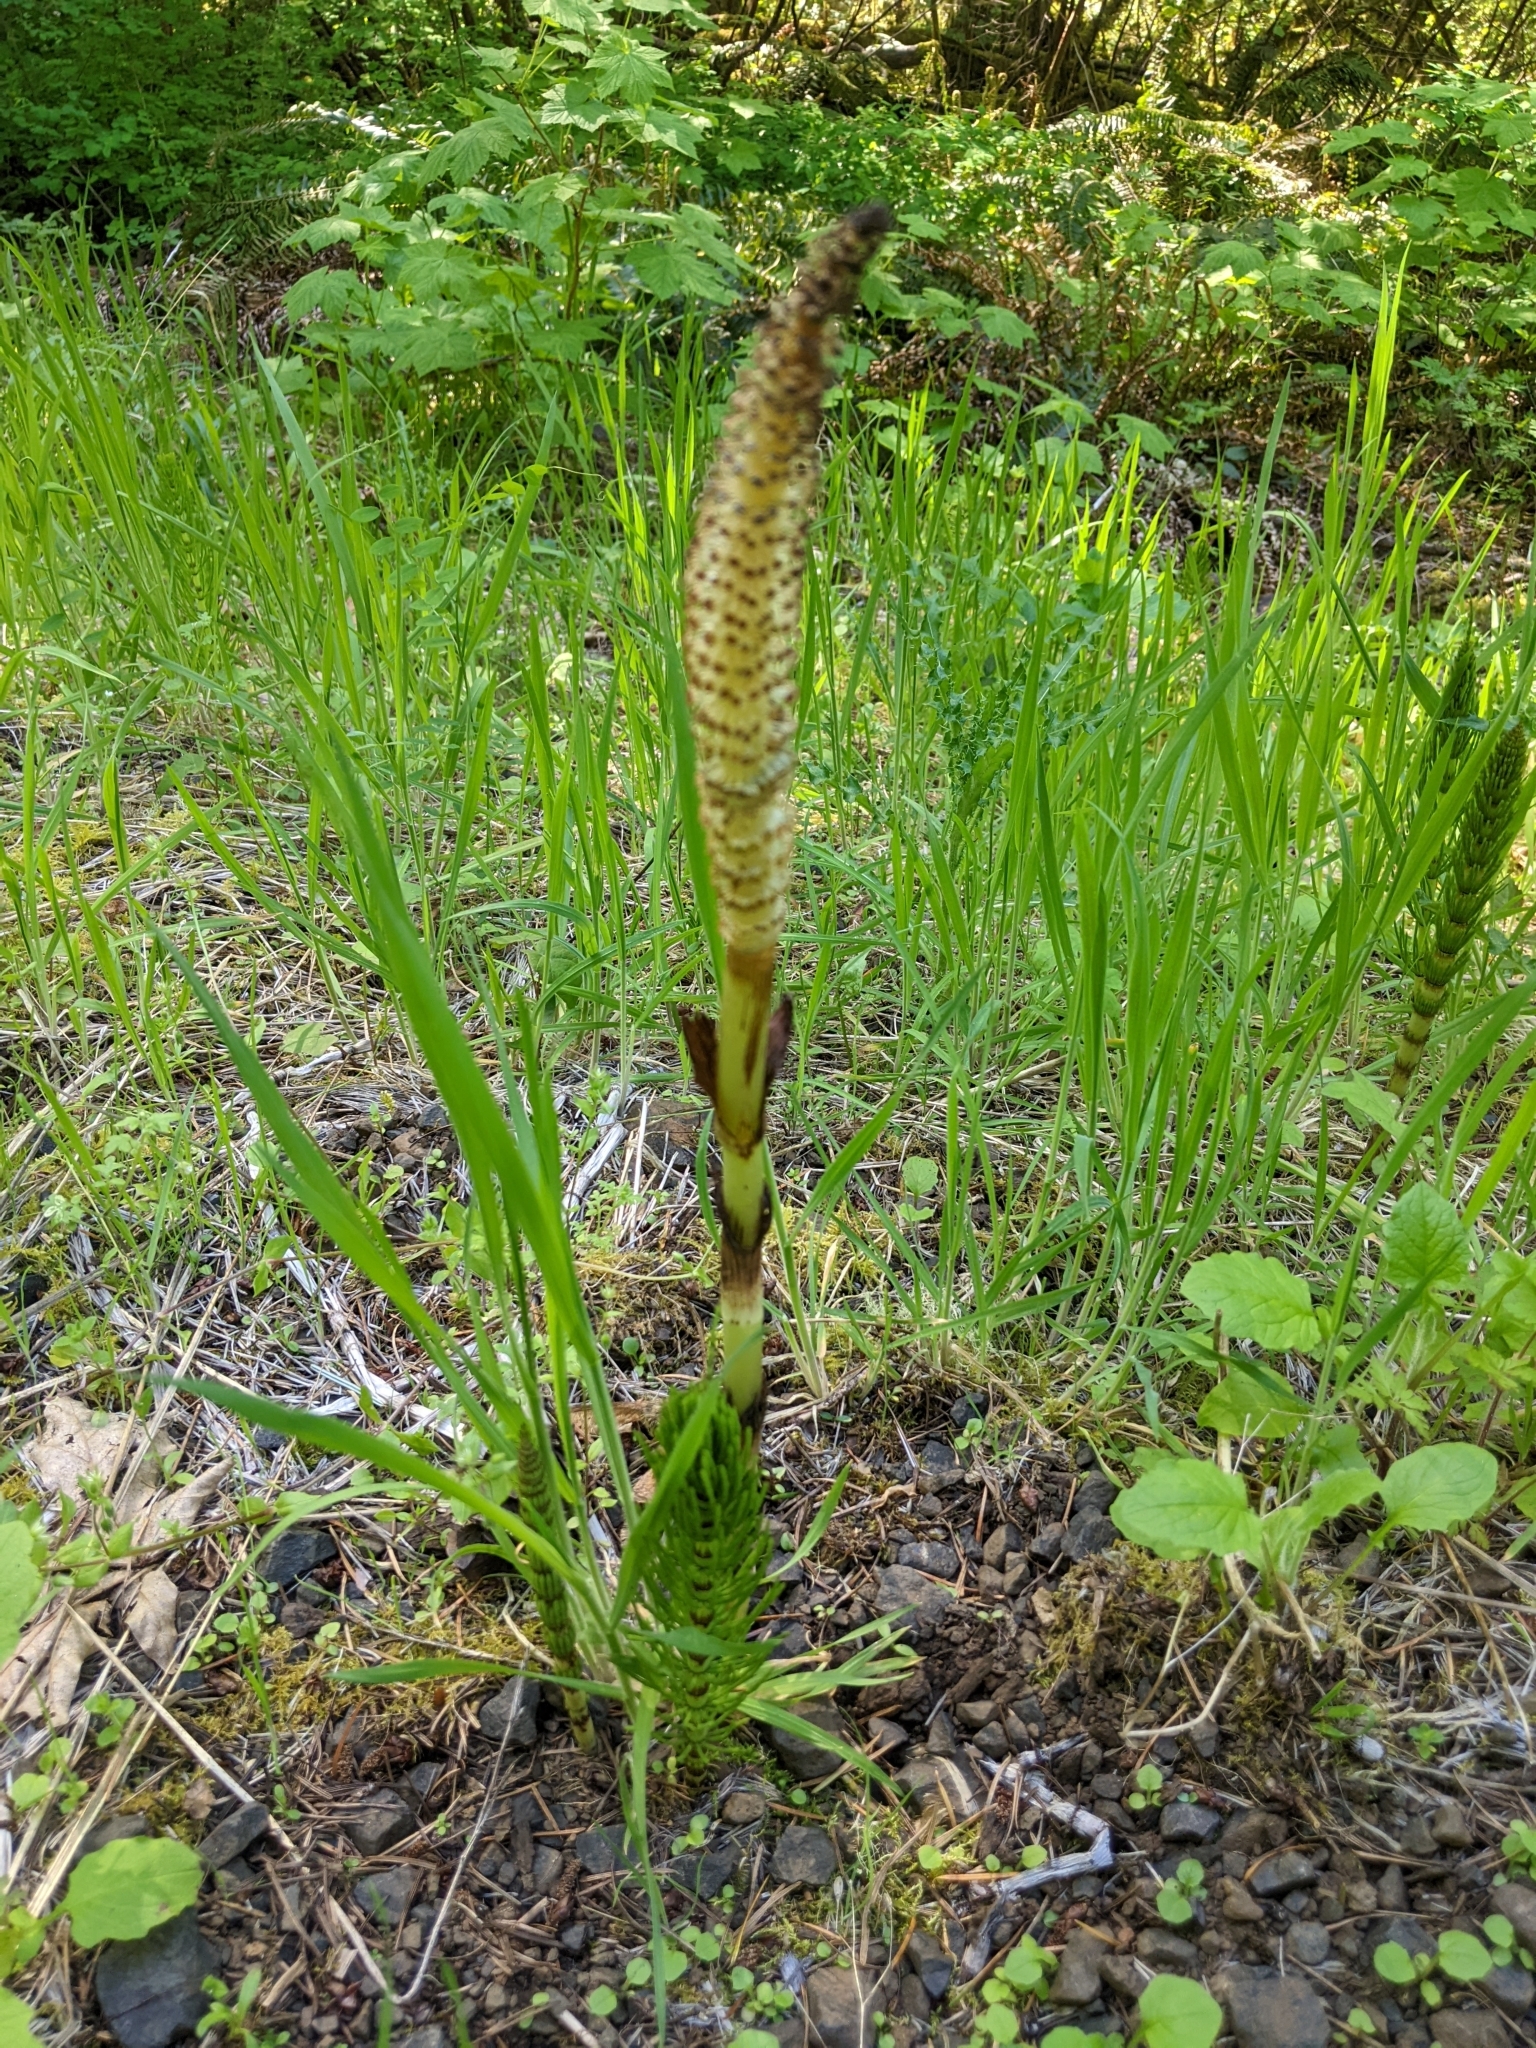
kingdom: Plantae
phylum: Tracheophyta
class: Polypodiopsida
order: Equisetales
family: Equisetaceae
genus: Equisetum
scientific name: Equisetum telmateia
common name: Great horsetail
